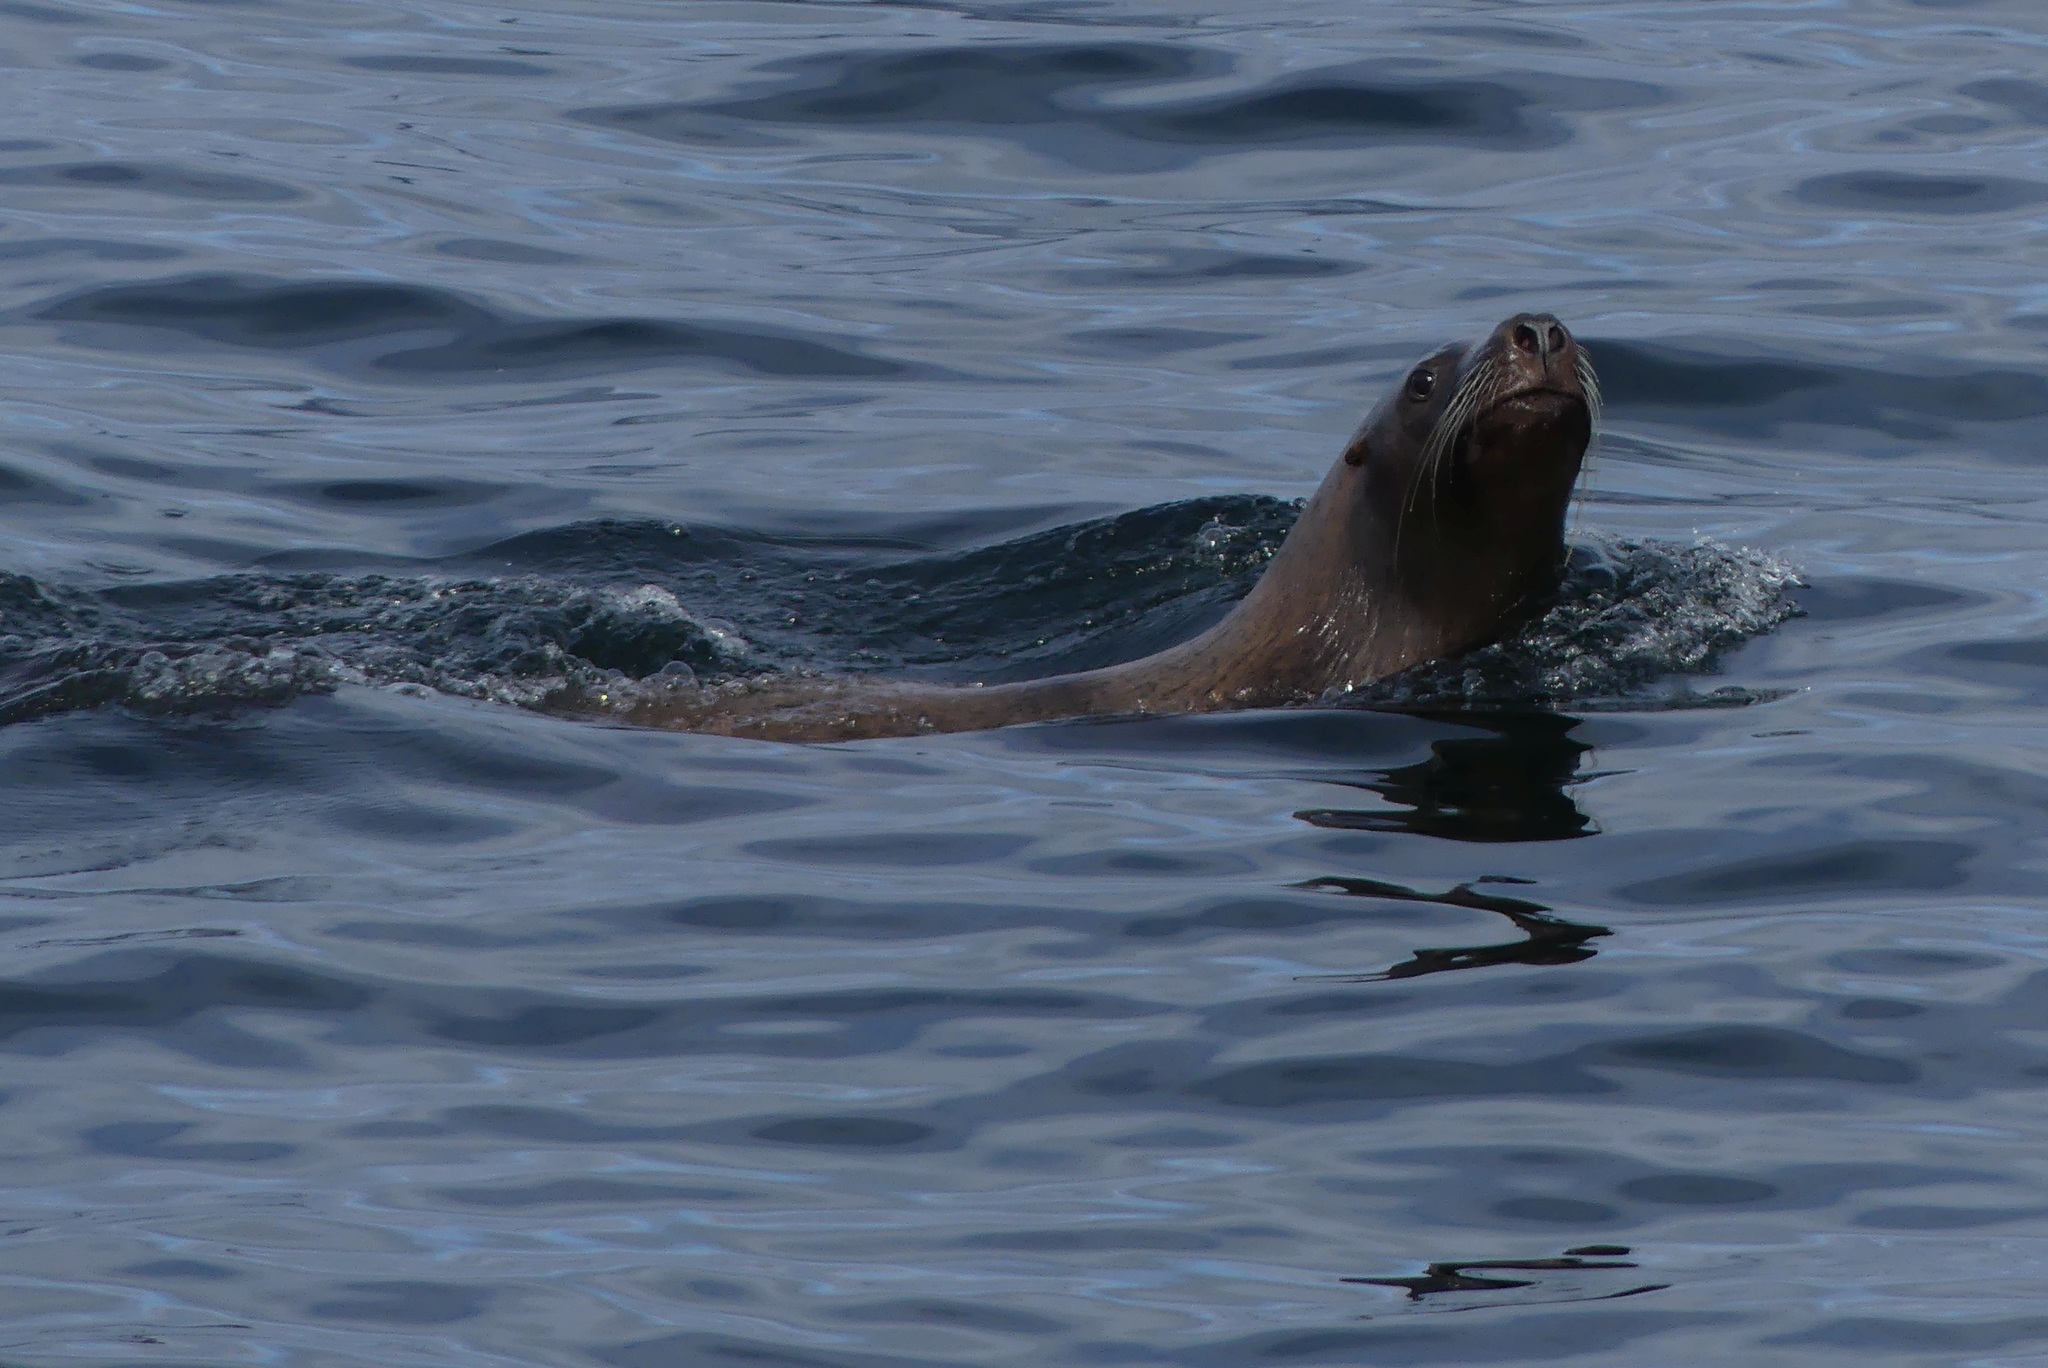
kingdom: Animalia
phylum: Chordata
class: Mammalia
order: Carnivora
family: Otariidae
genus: Eumetopias
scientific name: Eumetopias jubatus
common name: Steller sea lion
